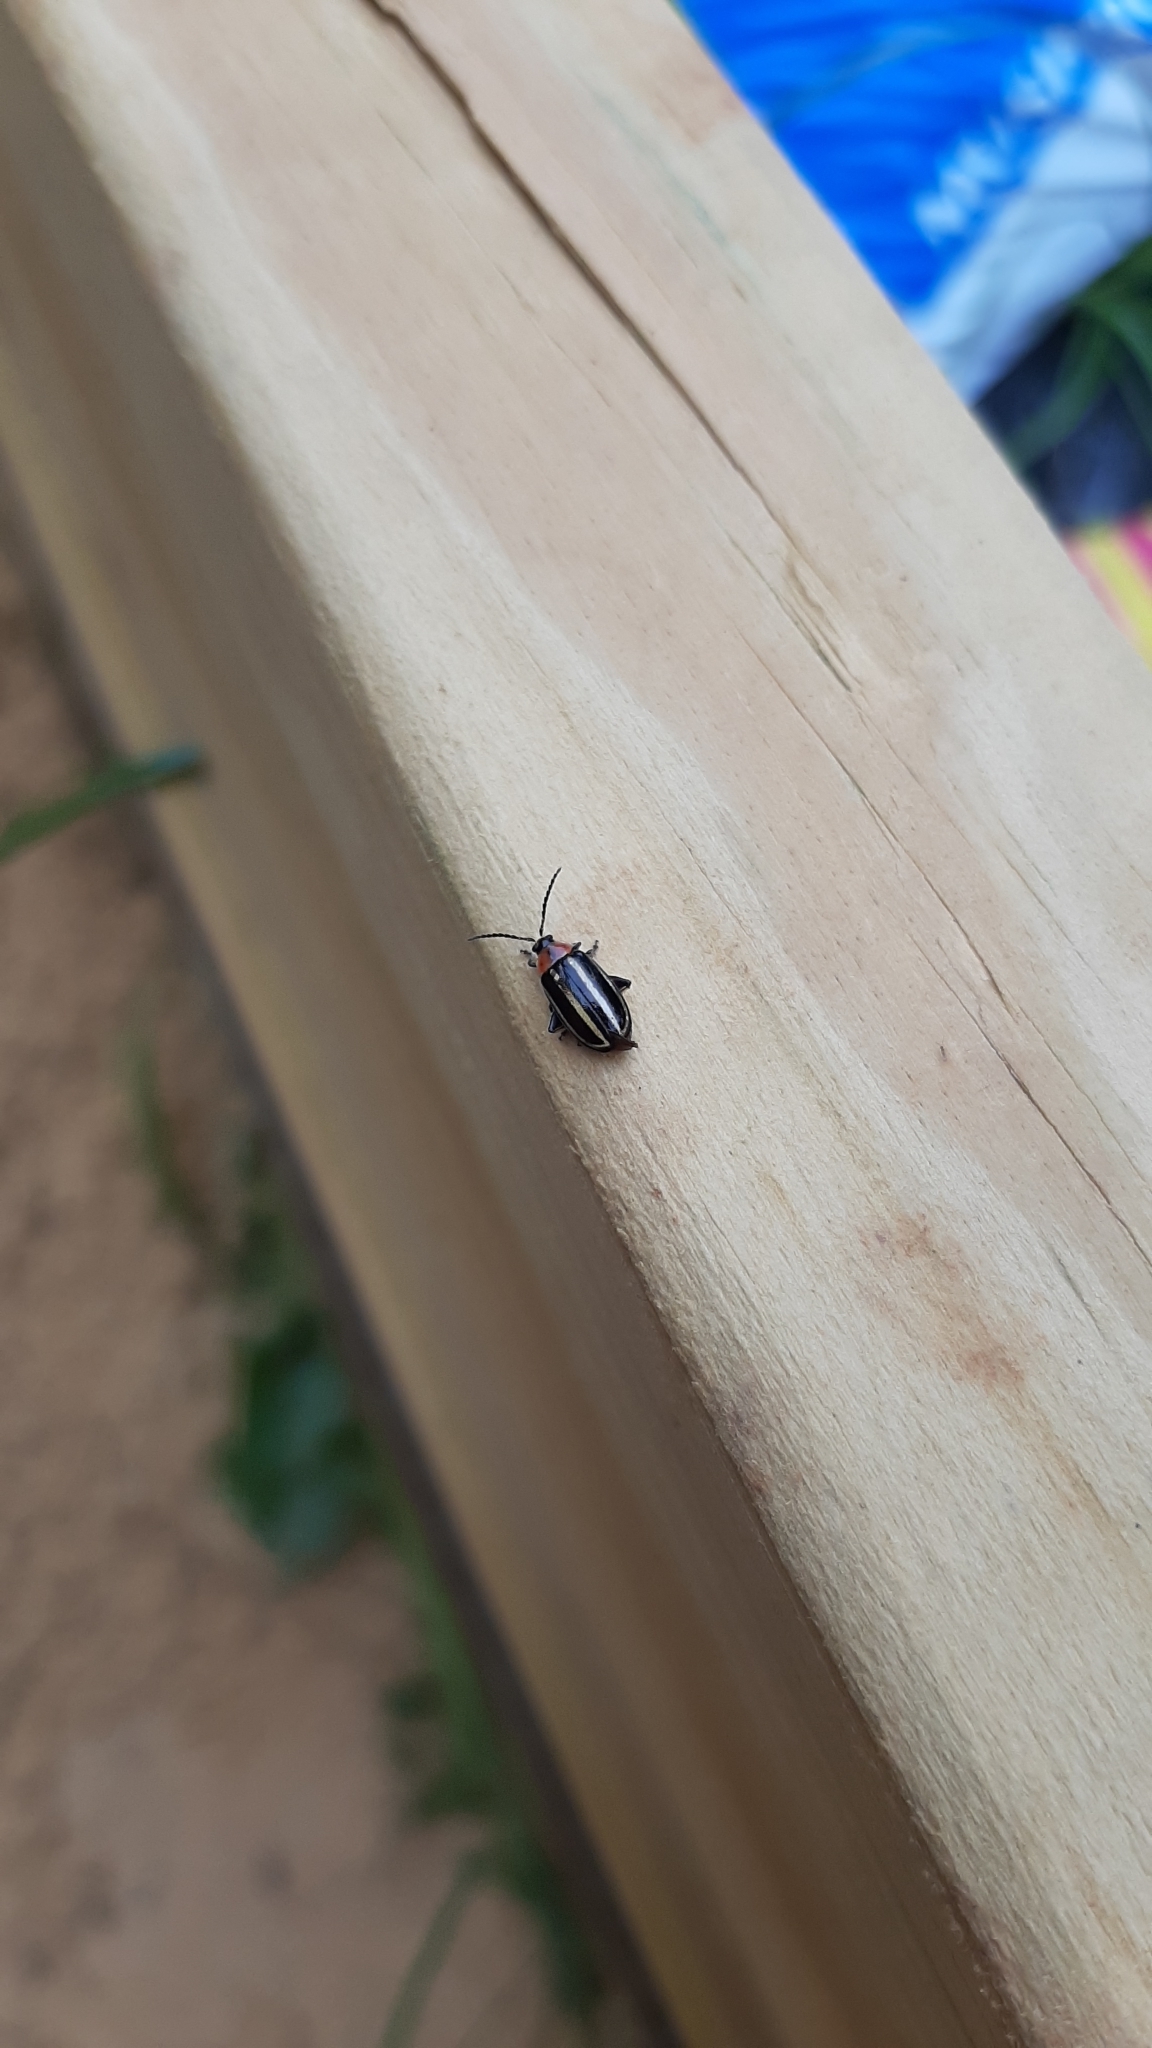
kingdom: Animalia
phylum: Arthropoda
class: Insecta
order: Coleoptera
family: Chrysomelidae
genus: Disonycha
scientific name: Disonycha glabrata
